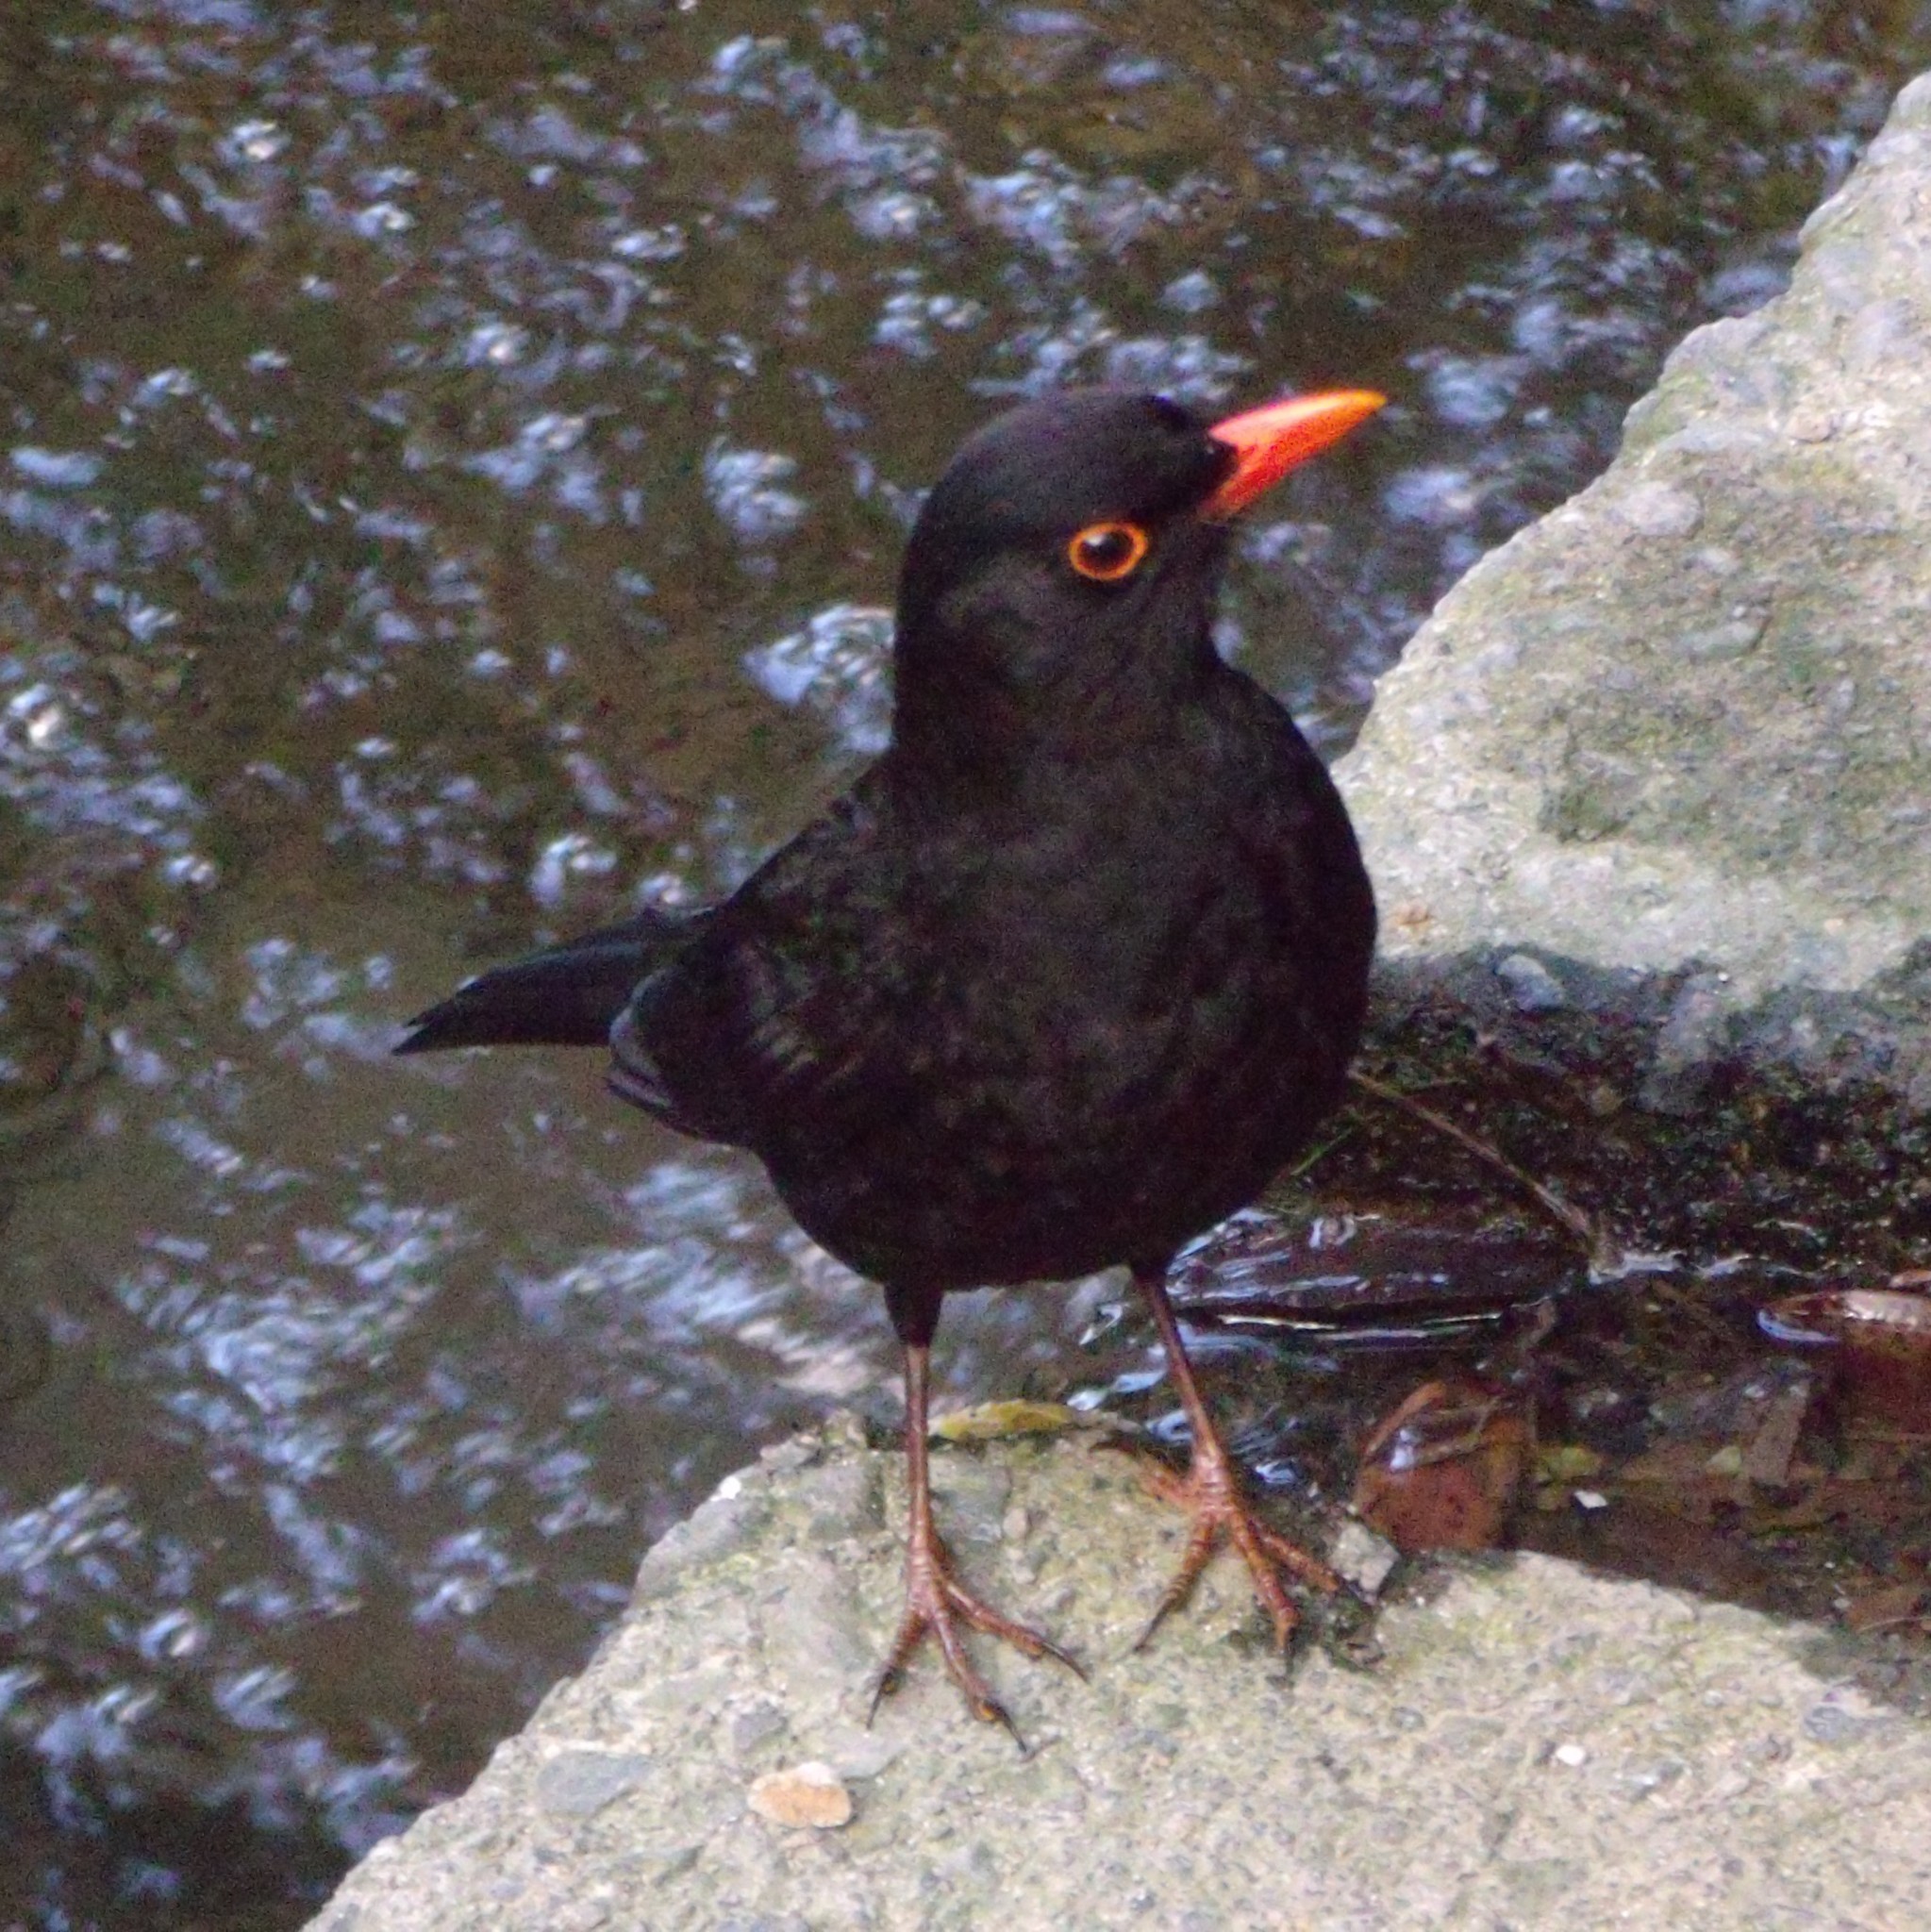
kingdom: Animalia
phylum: Chordata
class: Aves
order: Passeriformes
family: Turdidae
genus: Turdus
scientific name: Turdus merula
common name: Common blackbird
